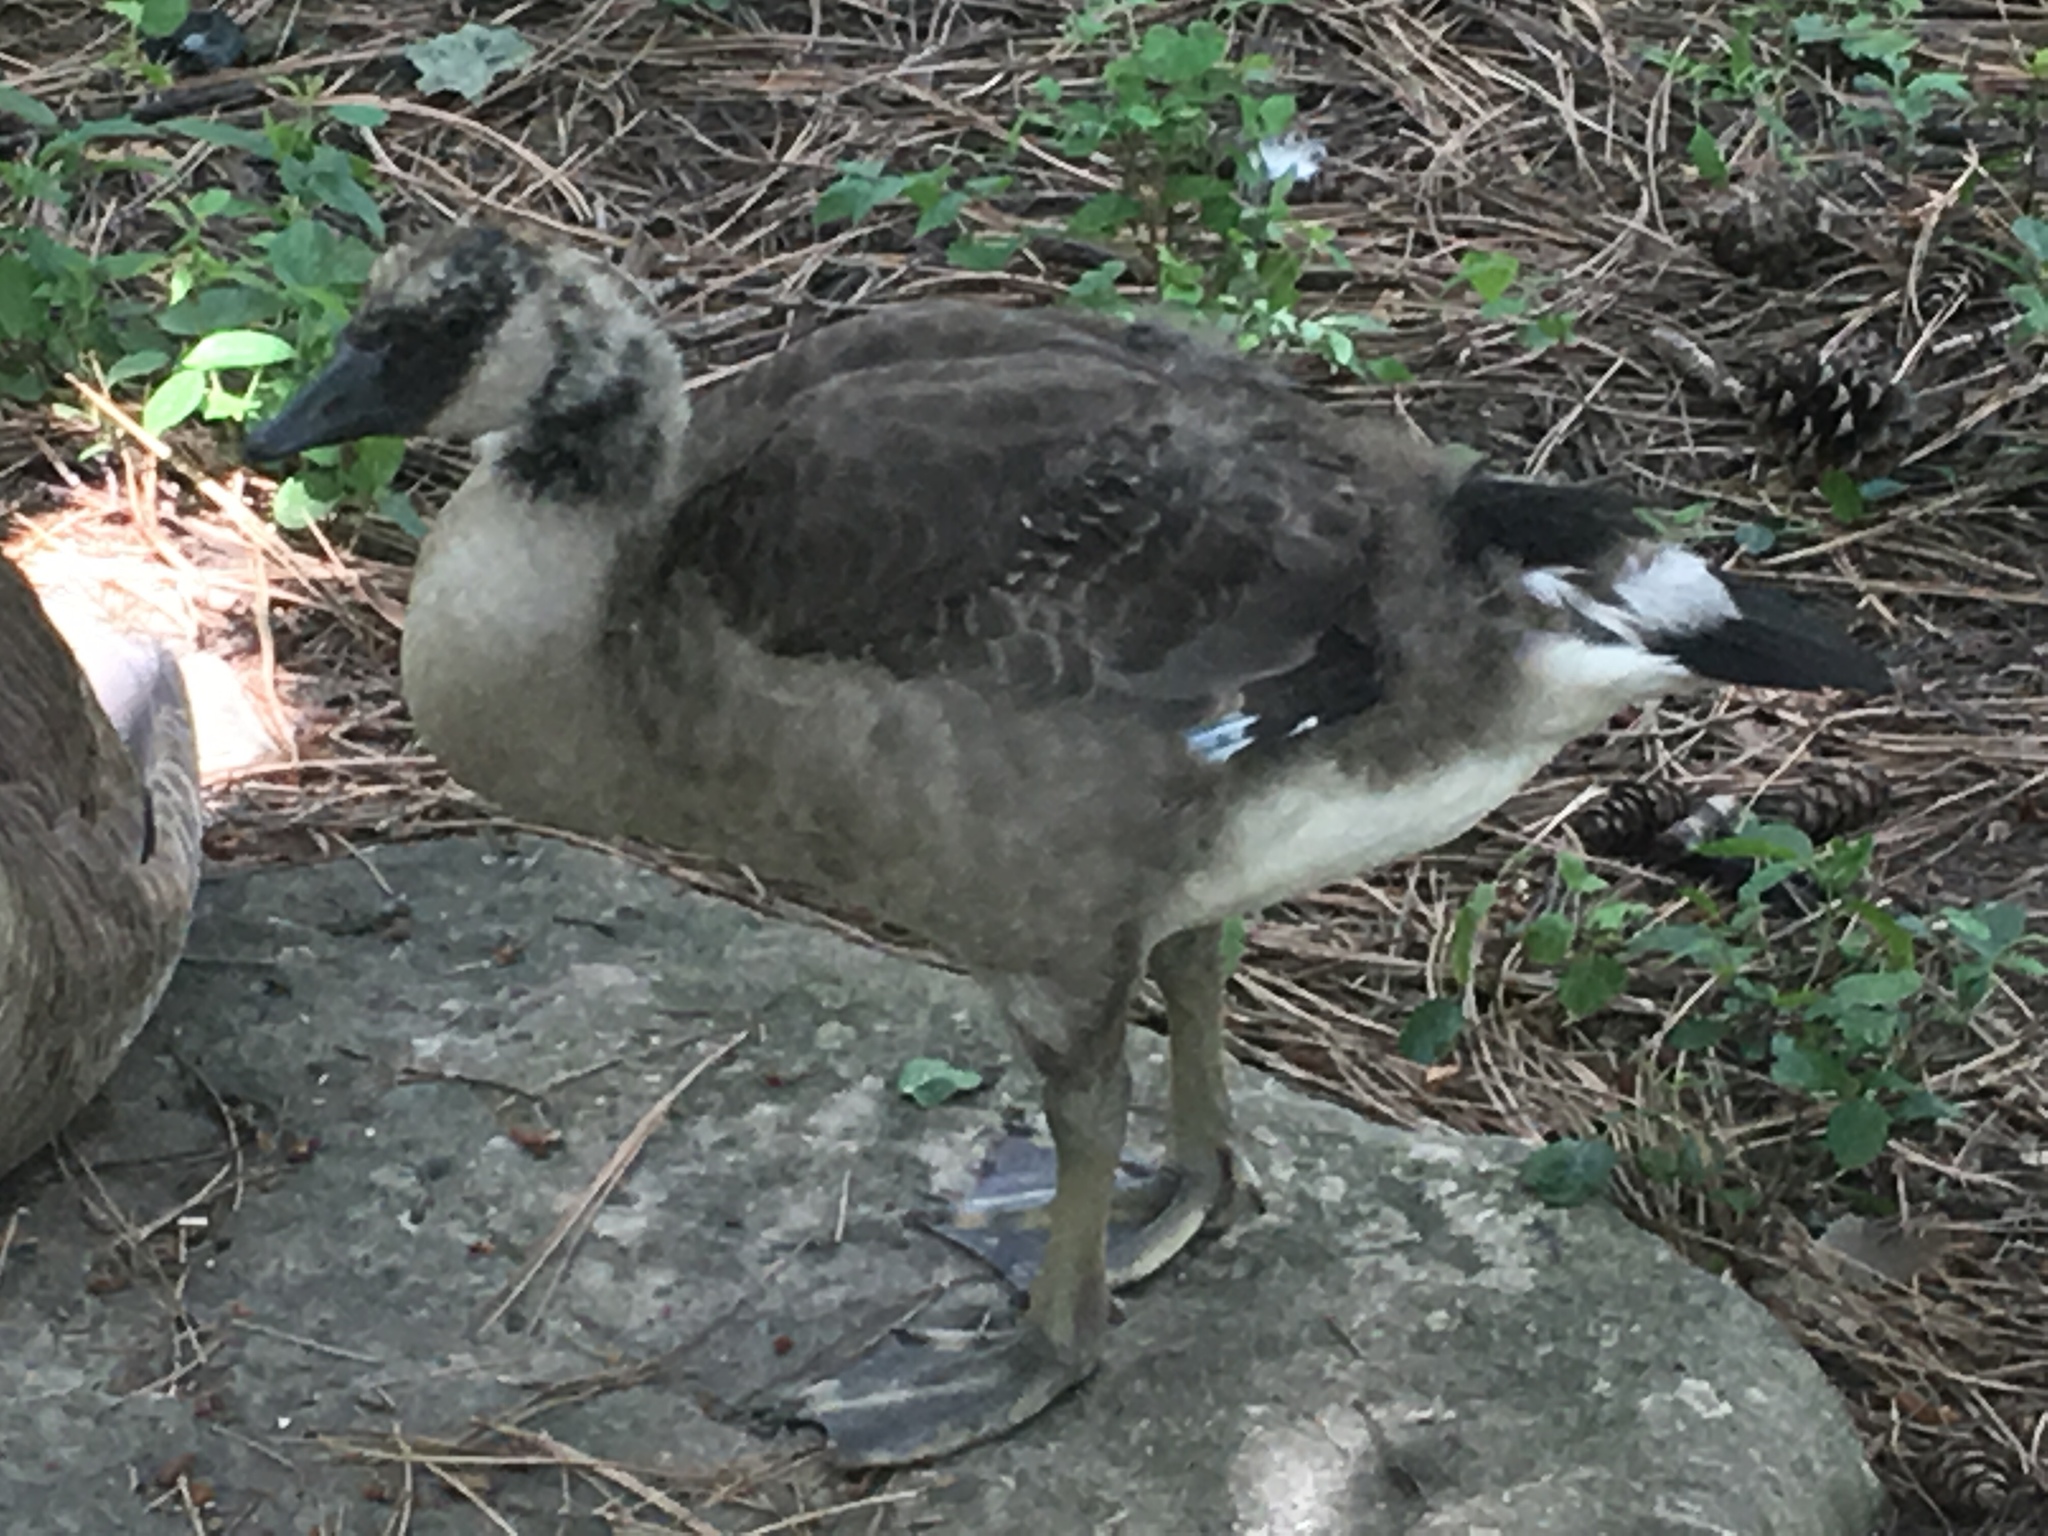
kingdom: Animalia
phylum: Chordata
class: Aves
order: Anseriformes
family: Anatidae
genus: Branta
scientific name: Branta canadensis
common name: Canada goose
